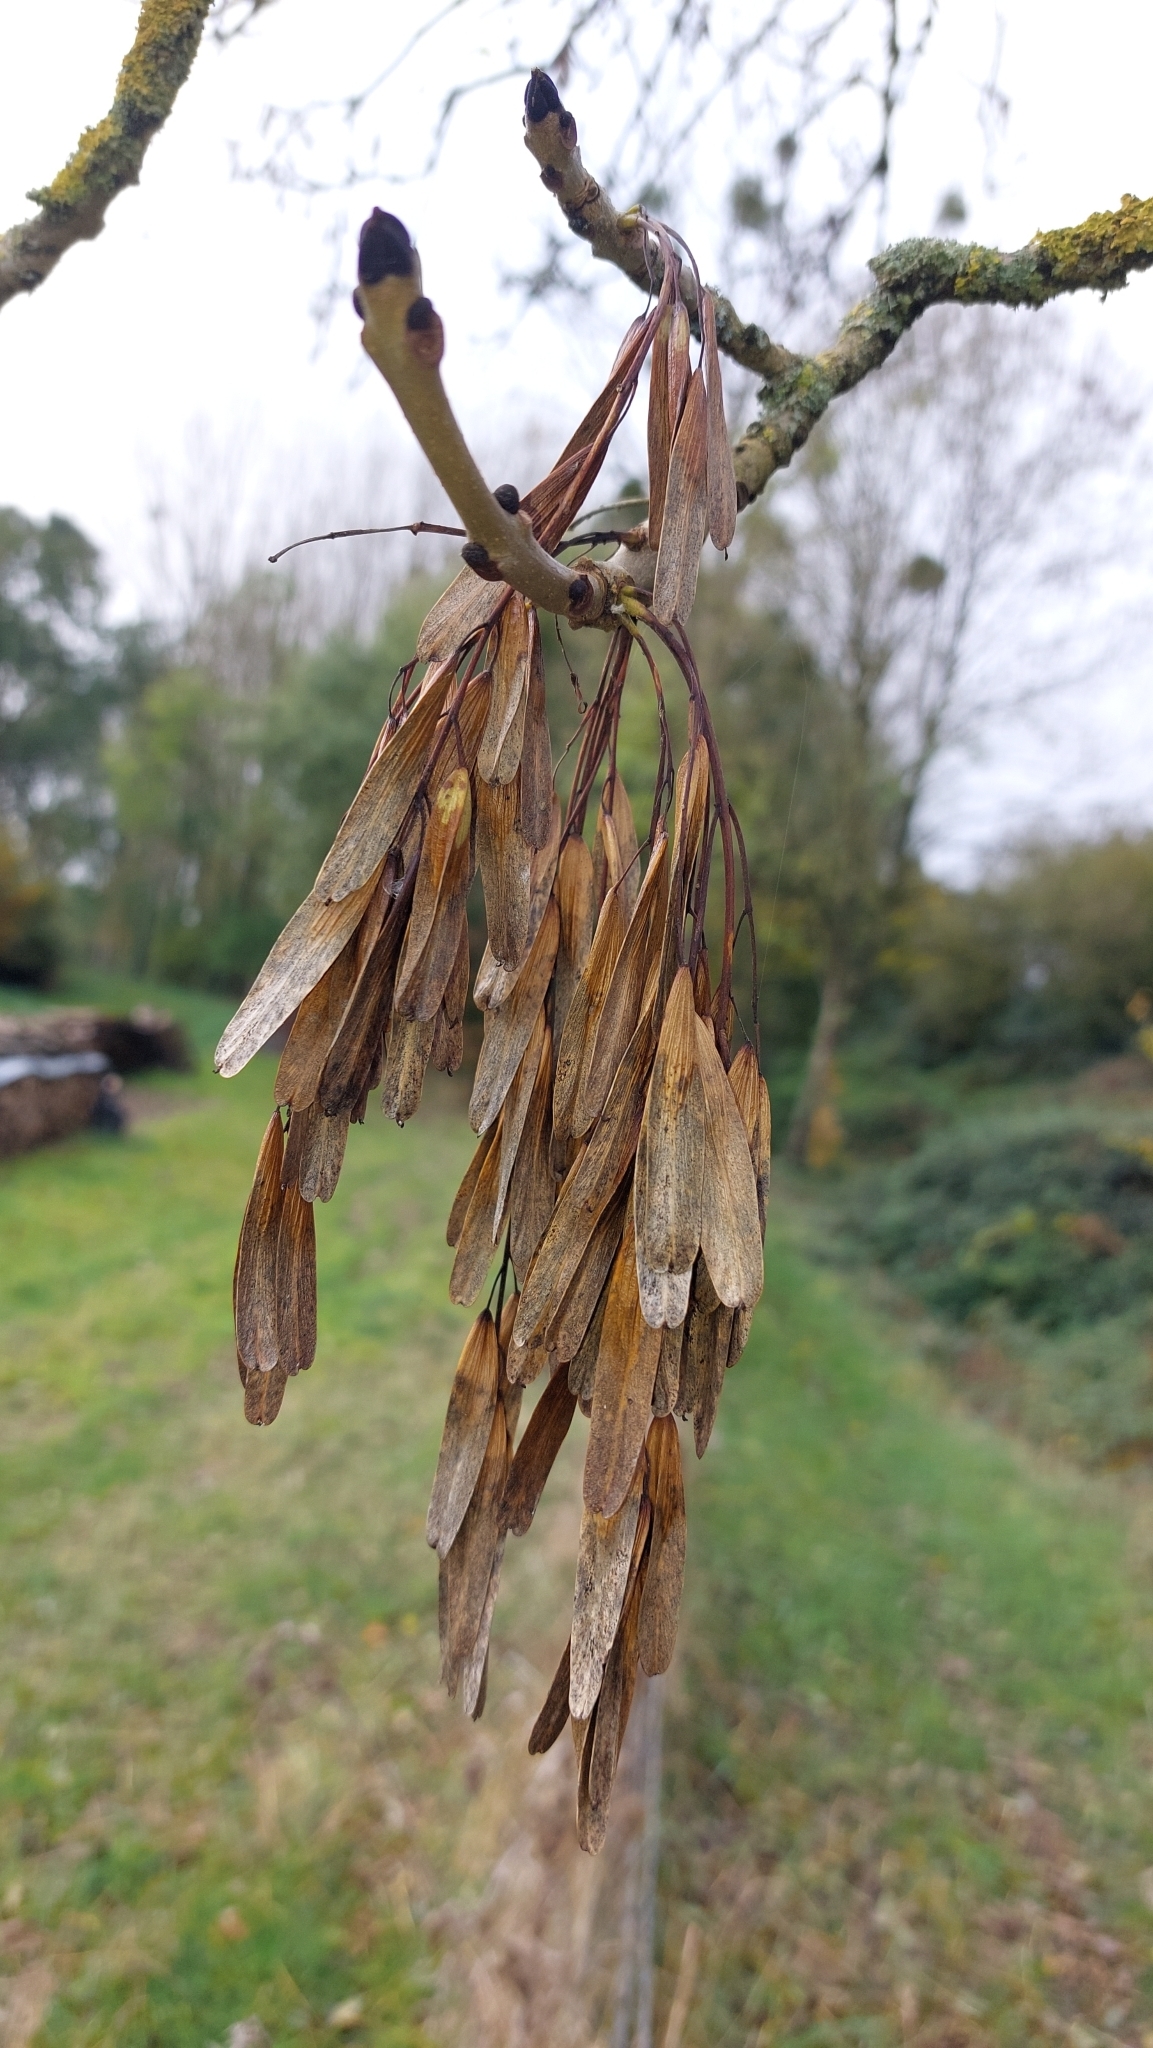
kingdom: Plantae
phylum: Tracheophyta
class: Magnoliopsida
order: Lamiales
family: Oleaceae
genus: Fraxinus
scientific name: Fraxinus excelsior
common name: European ash
